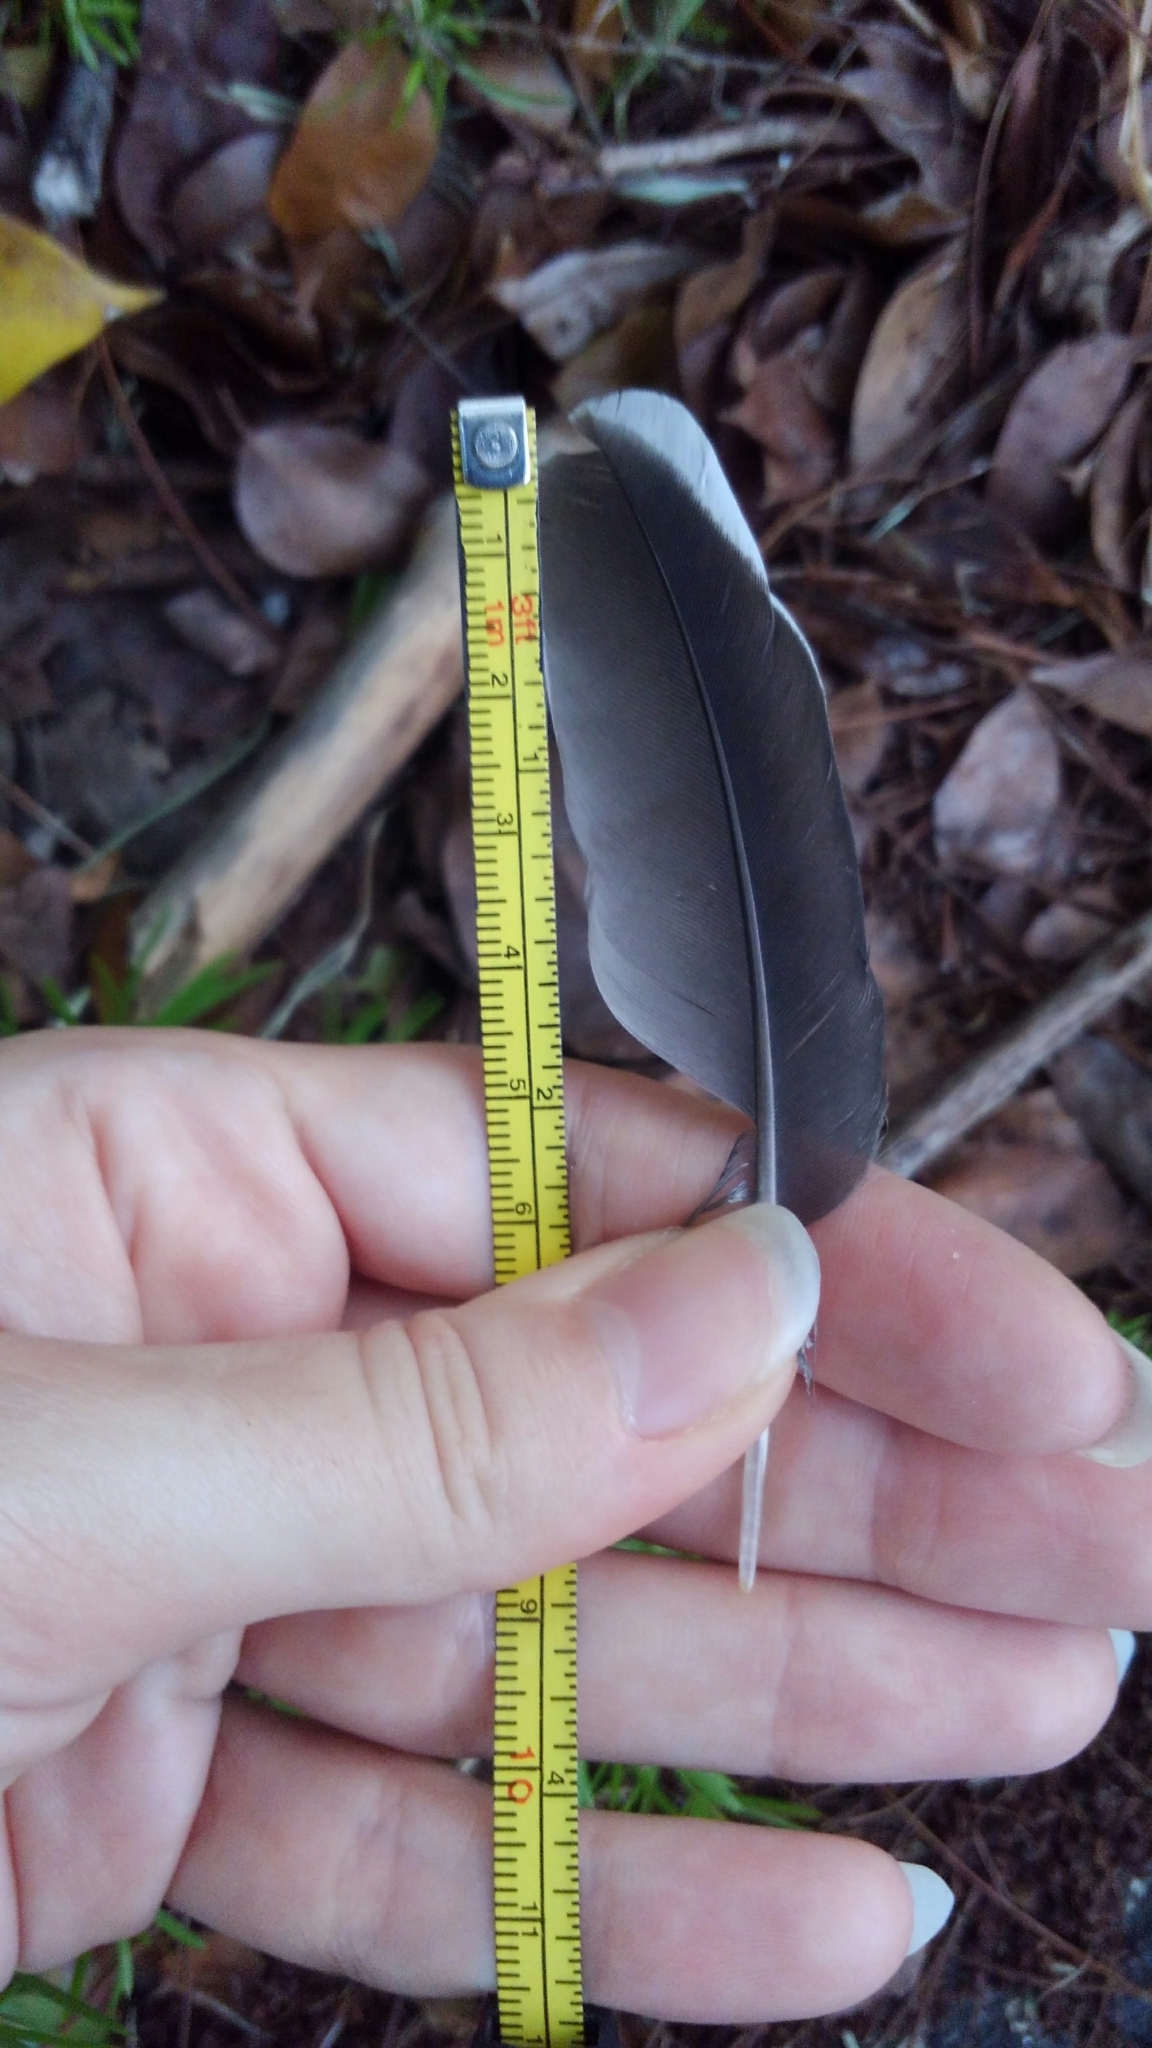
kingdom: Animalia
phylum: Chordata
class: Aves
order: Columbiformes
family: Columbidae
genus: Zenaida
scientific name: Zenaida asiatica
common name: White-winged dove
